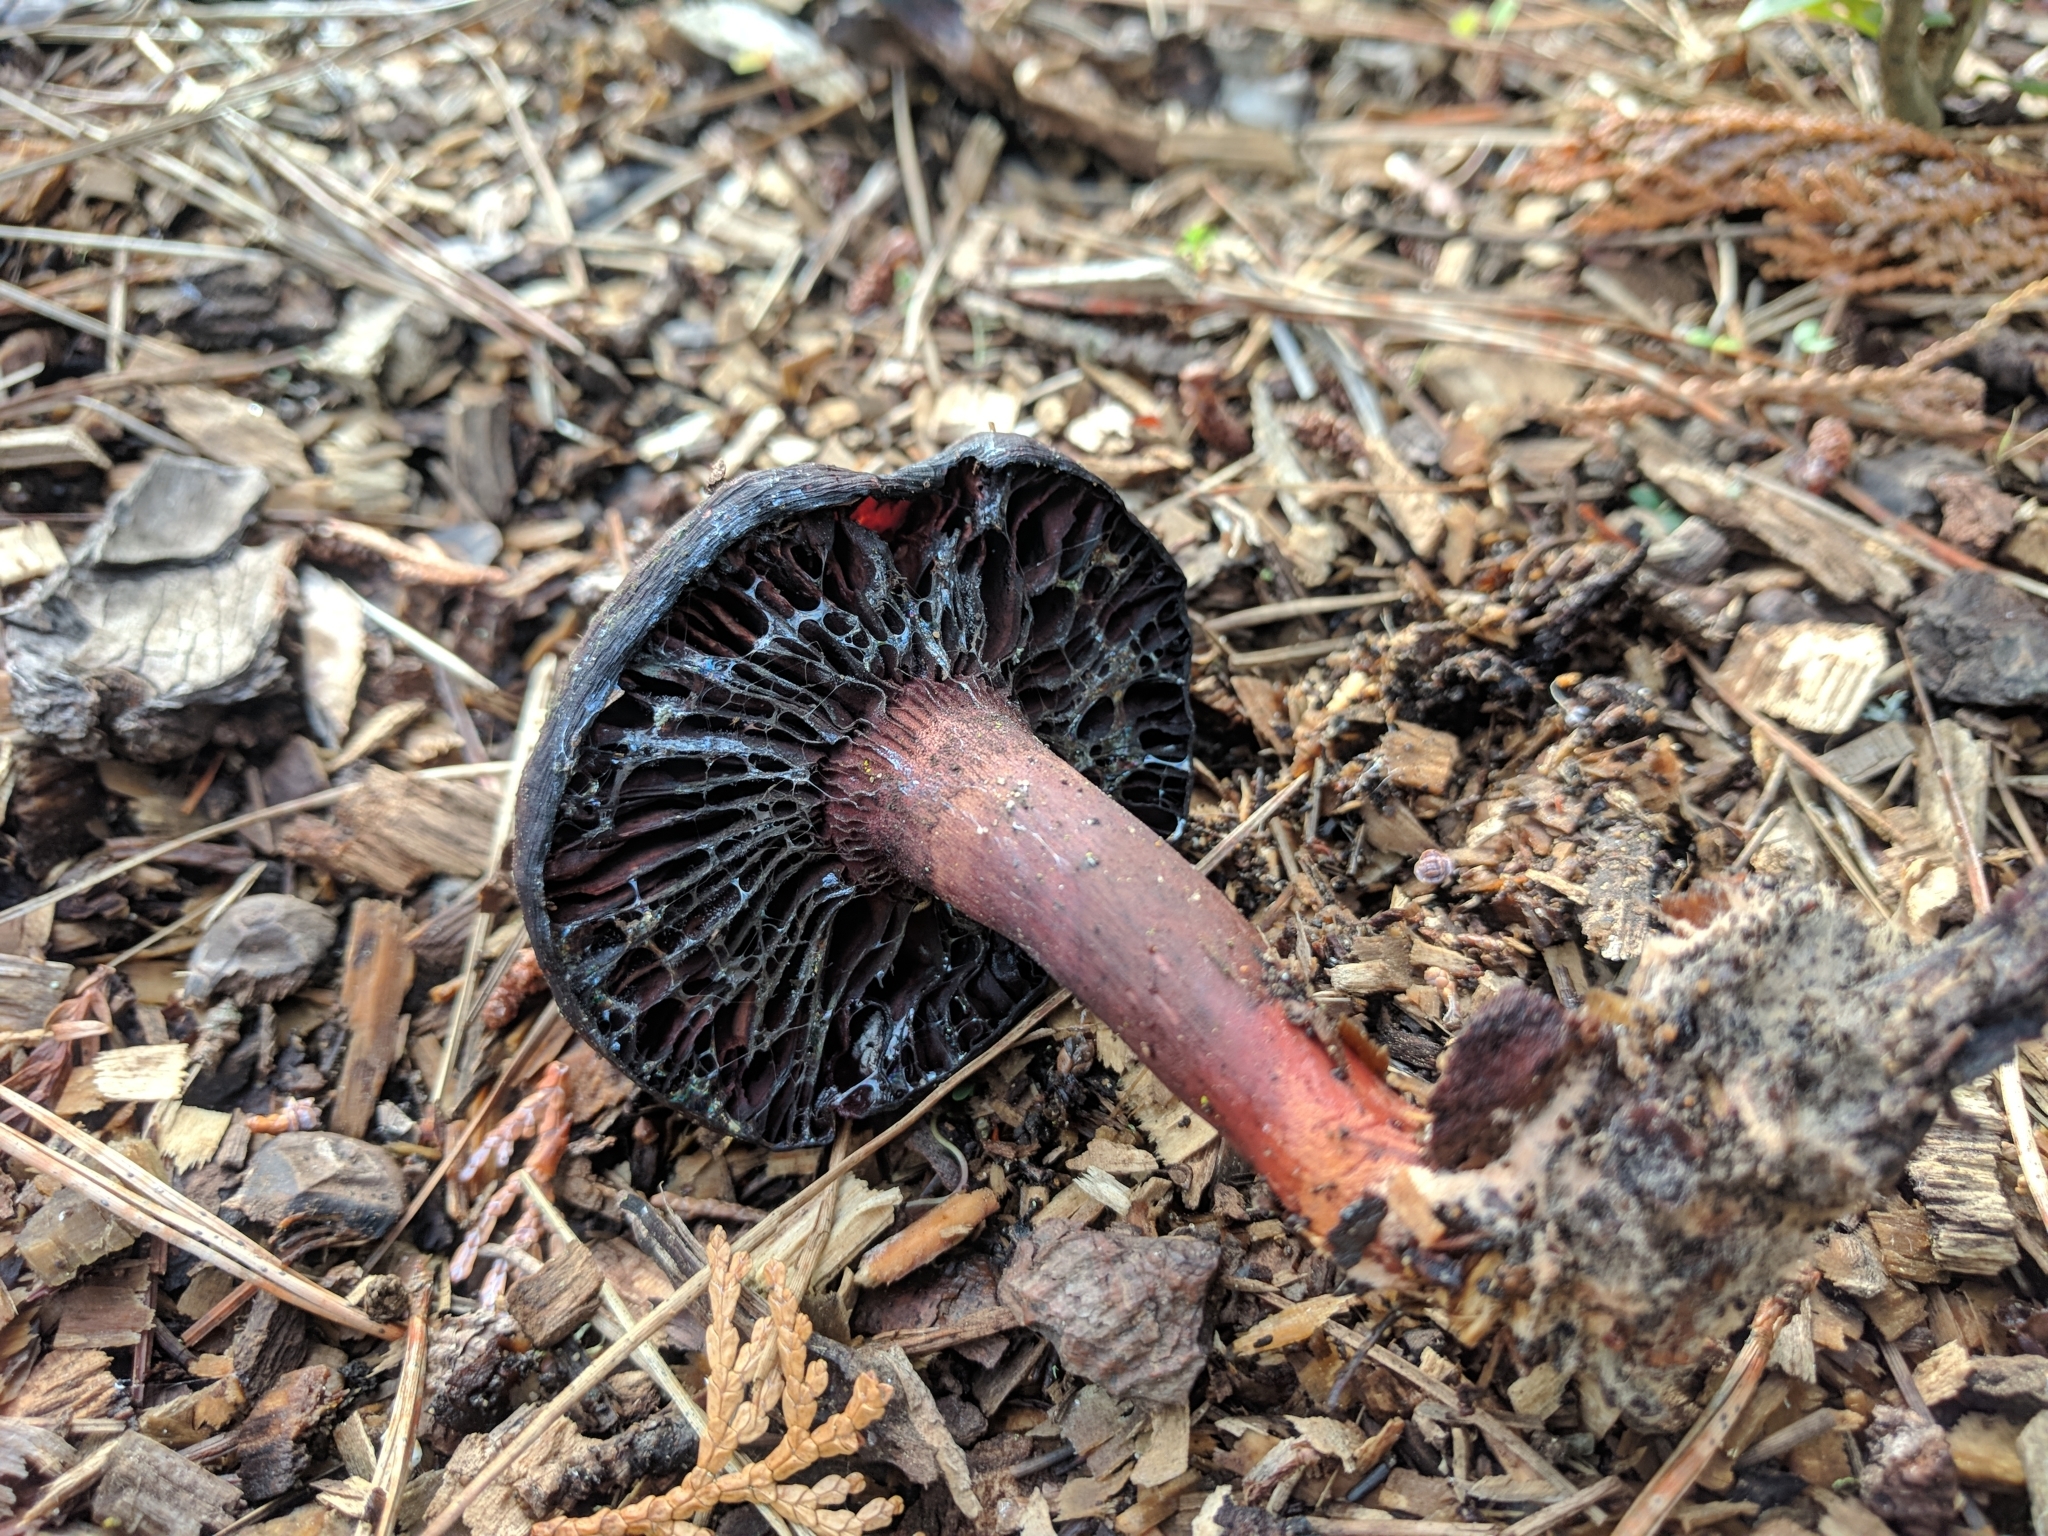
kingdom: Fungi
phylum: Basidiomycota
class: Agaricomycetes
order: Boletales
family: Gomphidiaceae
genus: Chroogomphus
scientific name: Chroogomphus vinicolor
